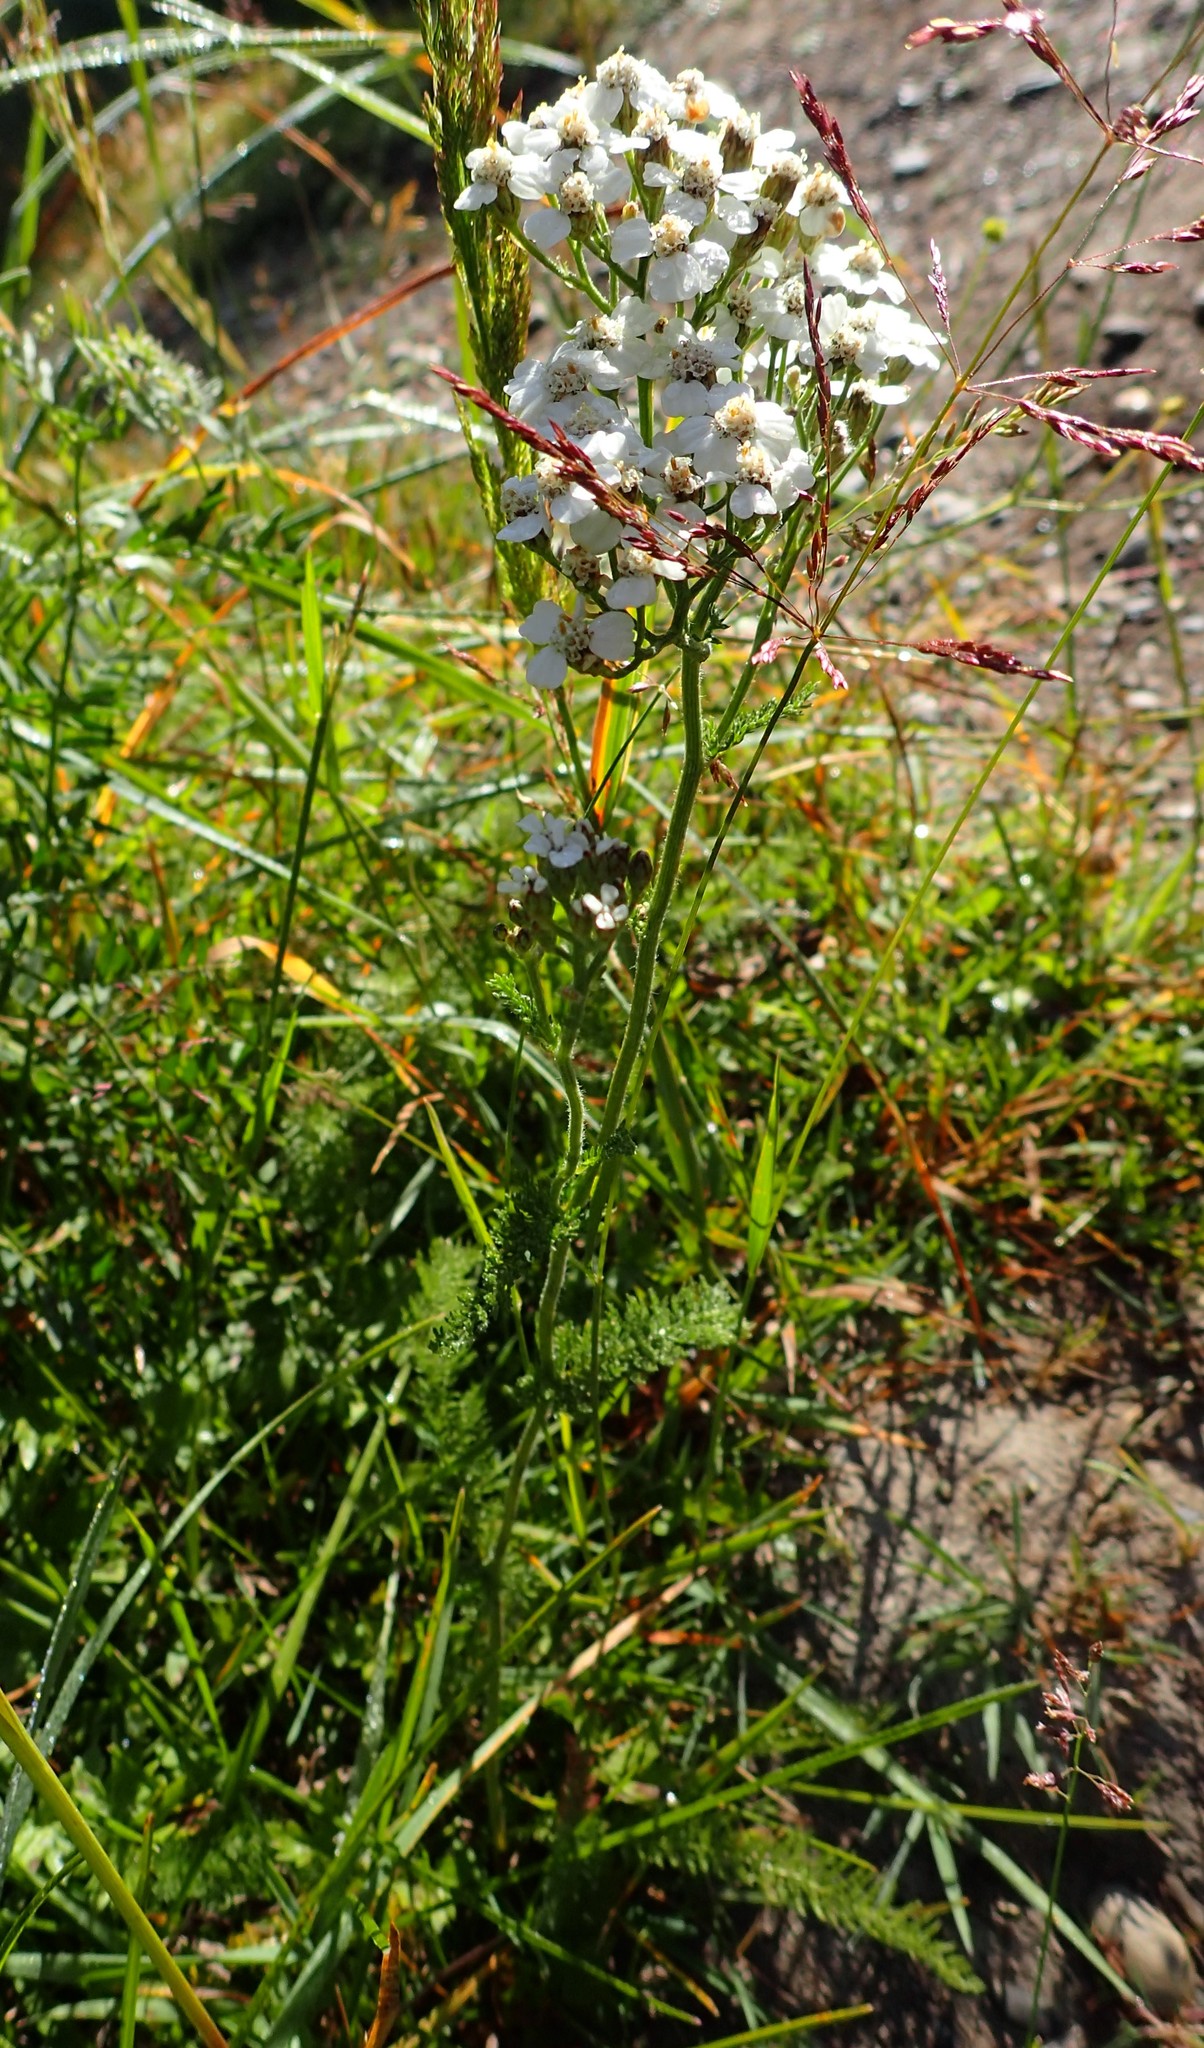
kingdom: Plantae
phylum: Tracheophyta
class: Magnoliopsida
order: Asterales
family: Asteraceae
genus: Achillea
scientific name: Achillea millefolium
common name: Yarrow
